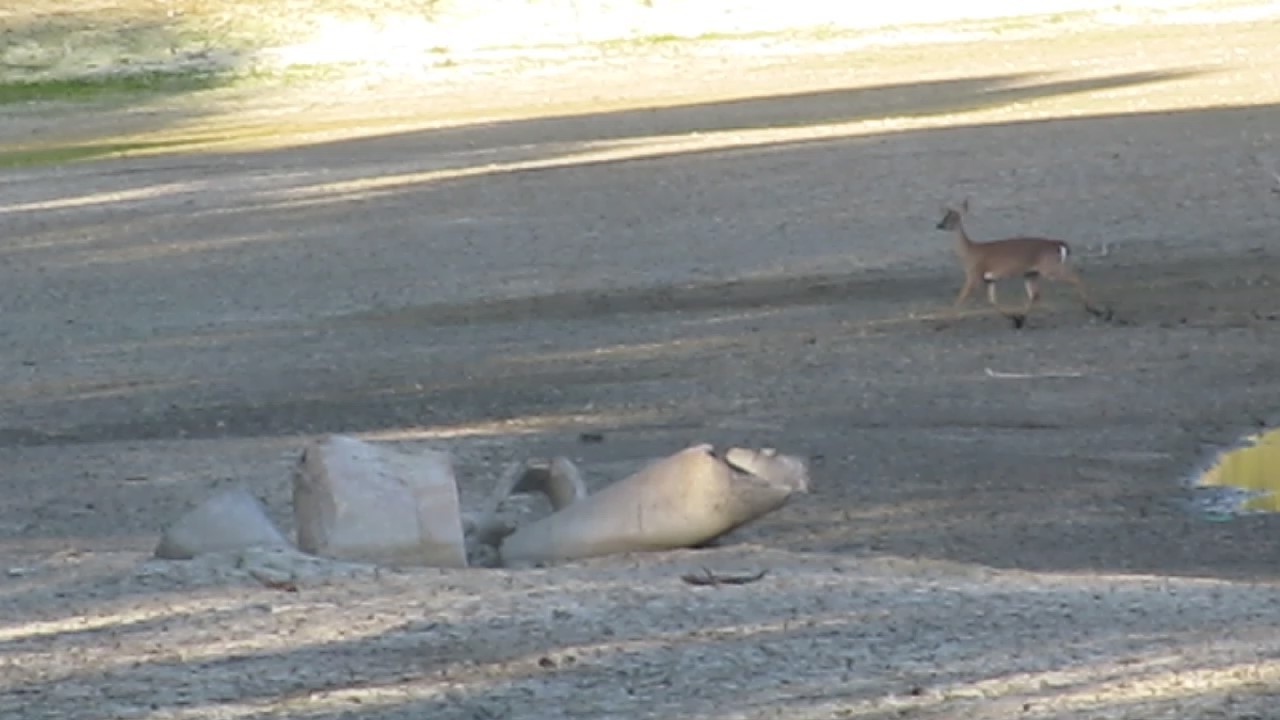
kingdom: Animalia
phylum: Chordata
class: Mammalia
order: Artiodactyla
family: Cervidae
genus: Odocoileus
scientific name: Odocoileus virginianus
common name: White-tailed deer
